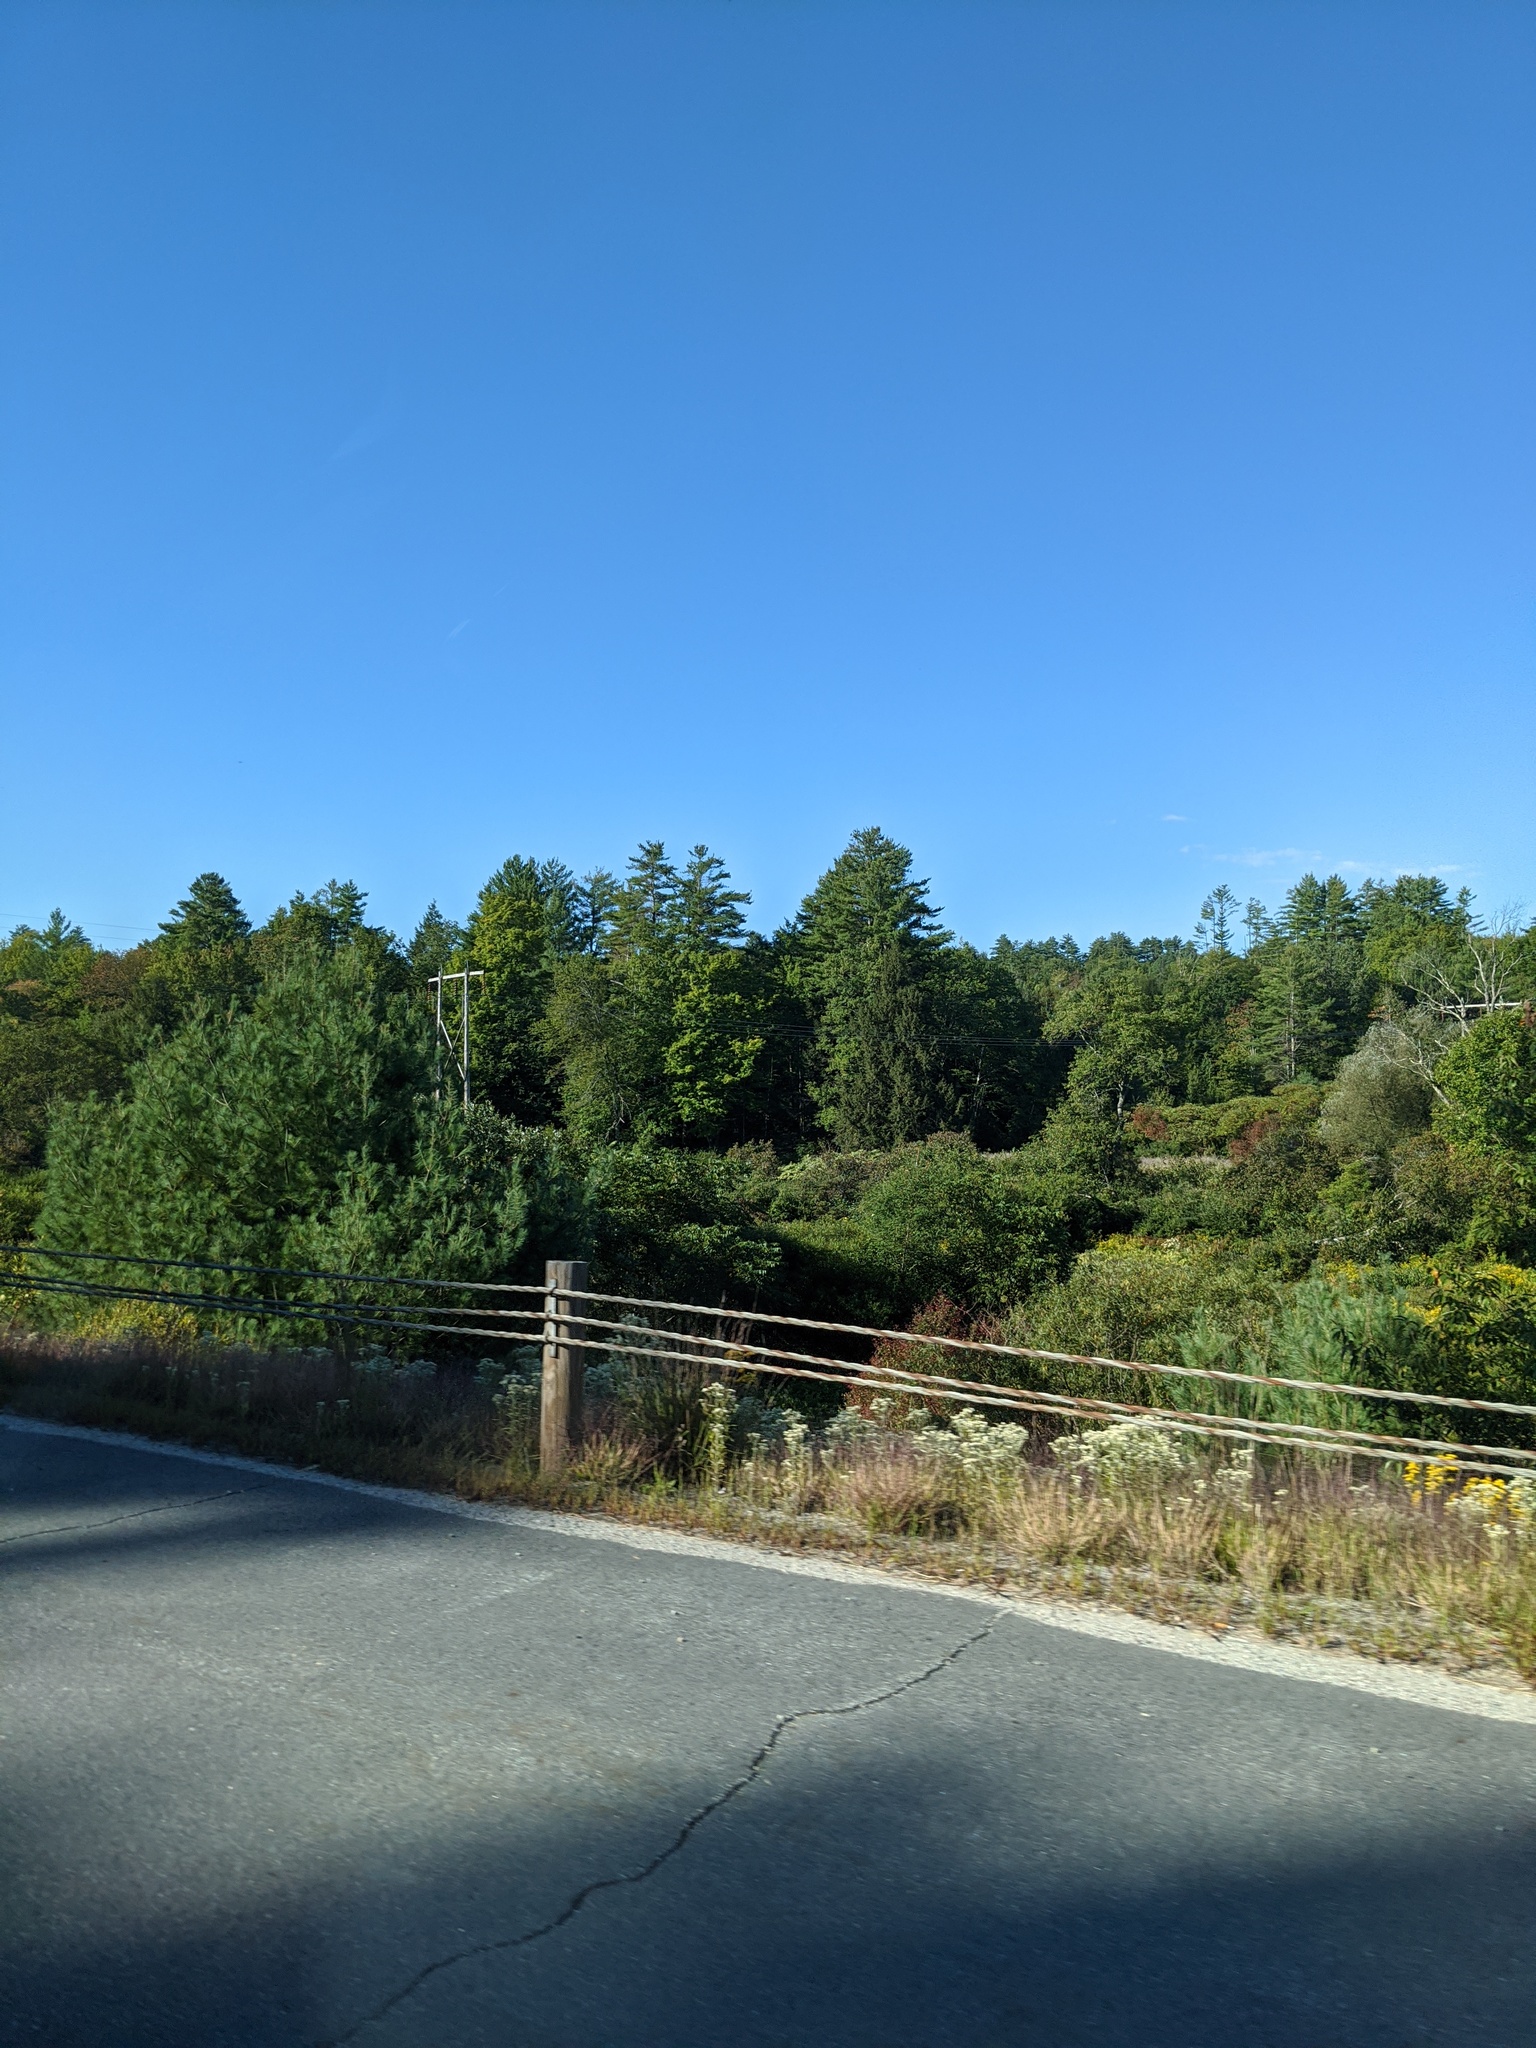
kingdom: Plantae
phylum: Tracheophyta
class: Magnoliopsida
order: Apiales
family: Apiaceae
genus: Daucus
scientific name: Daucus carota
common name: Wild carrot
